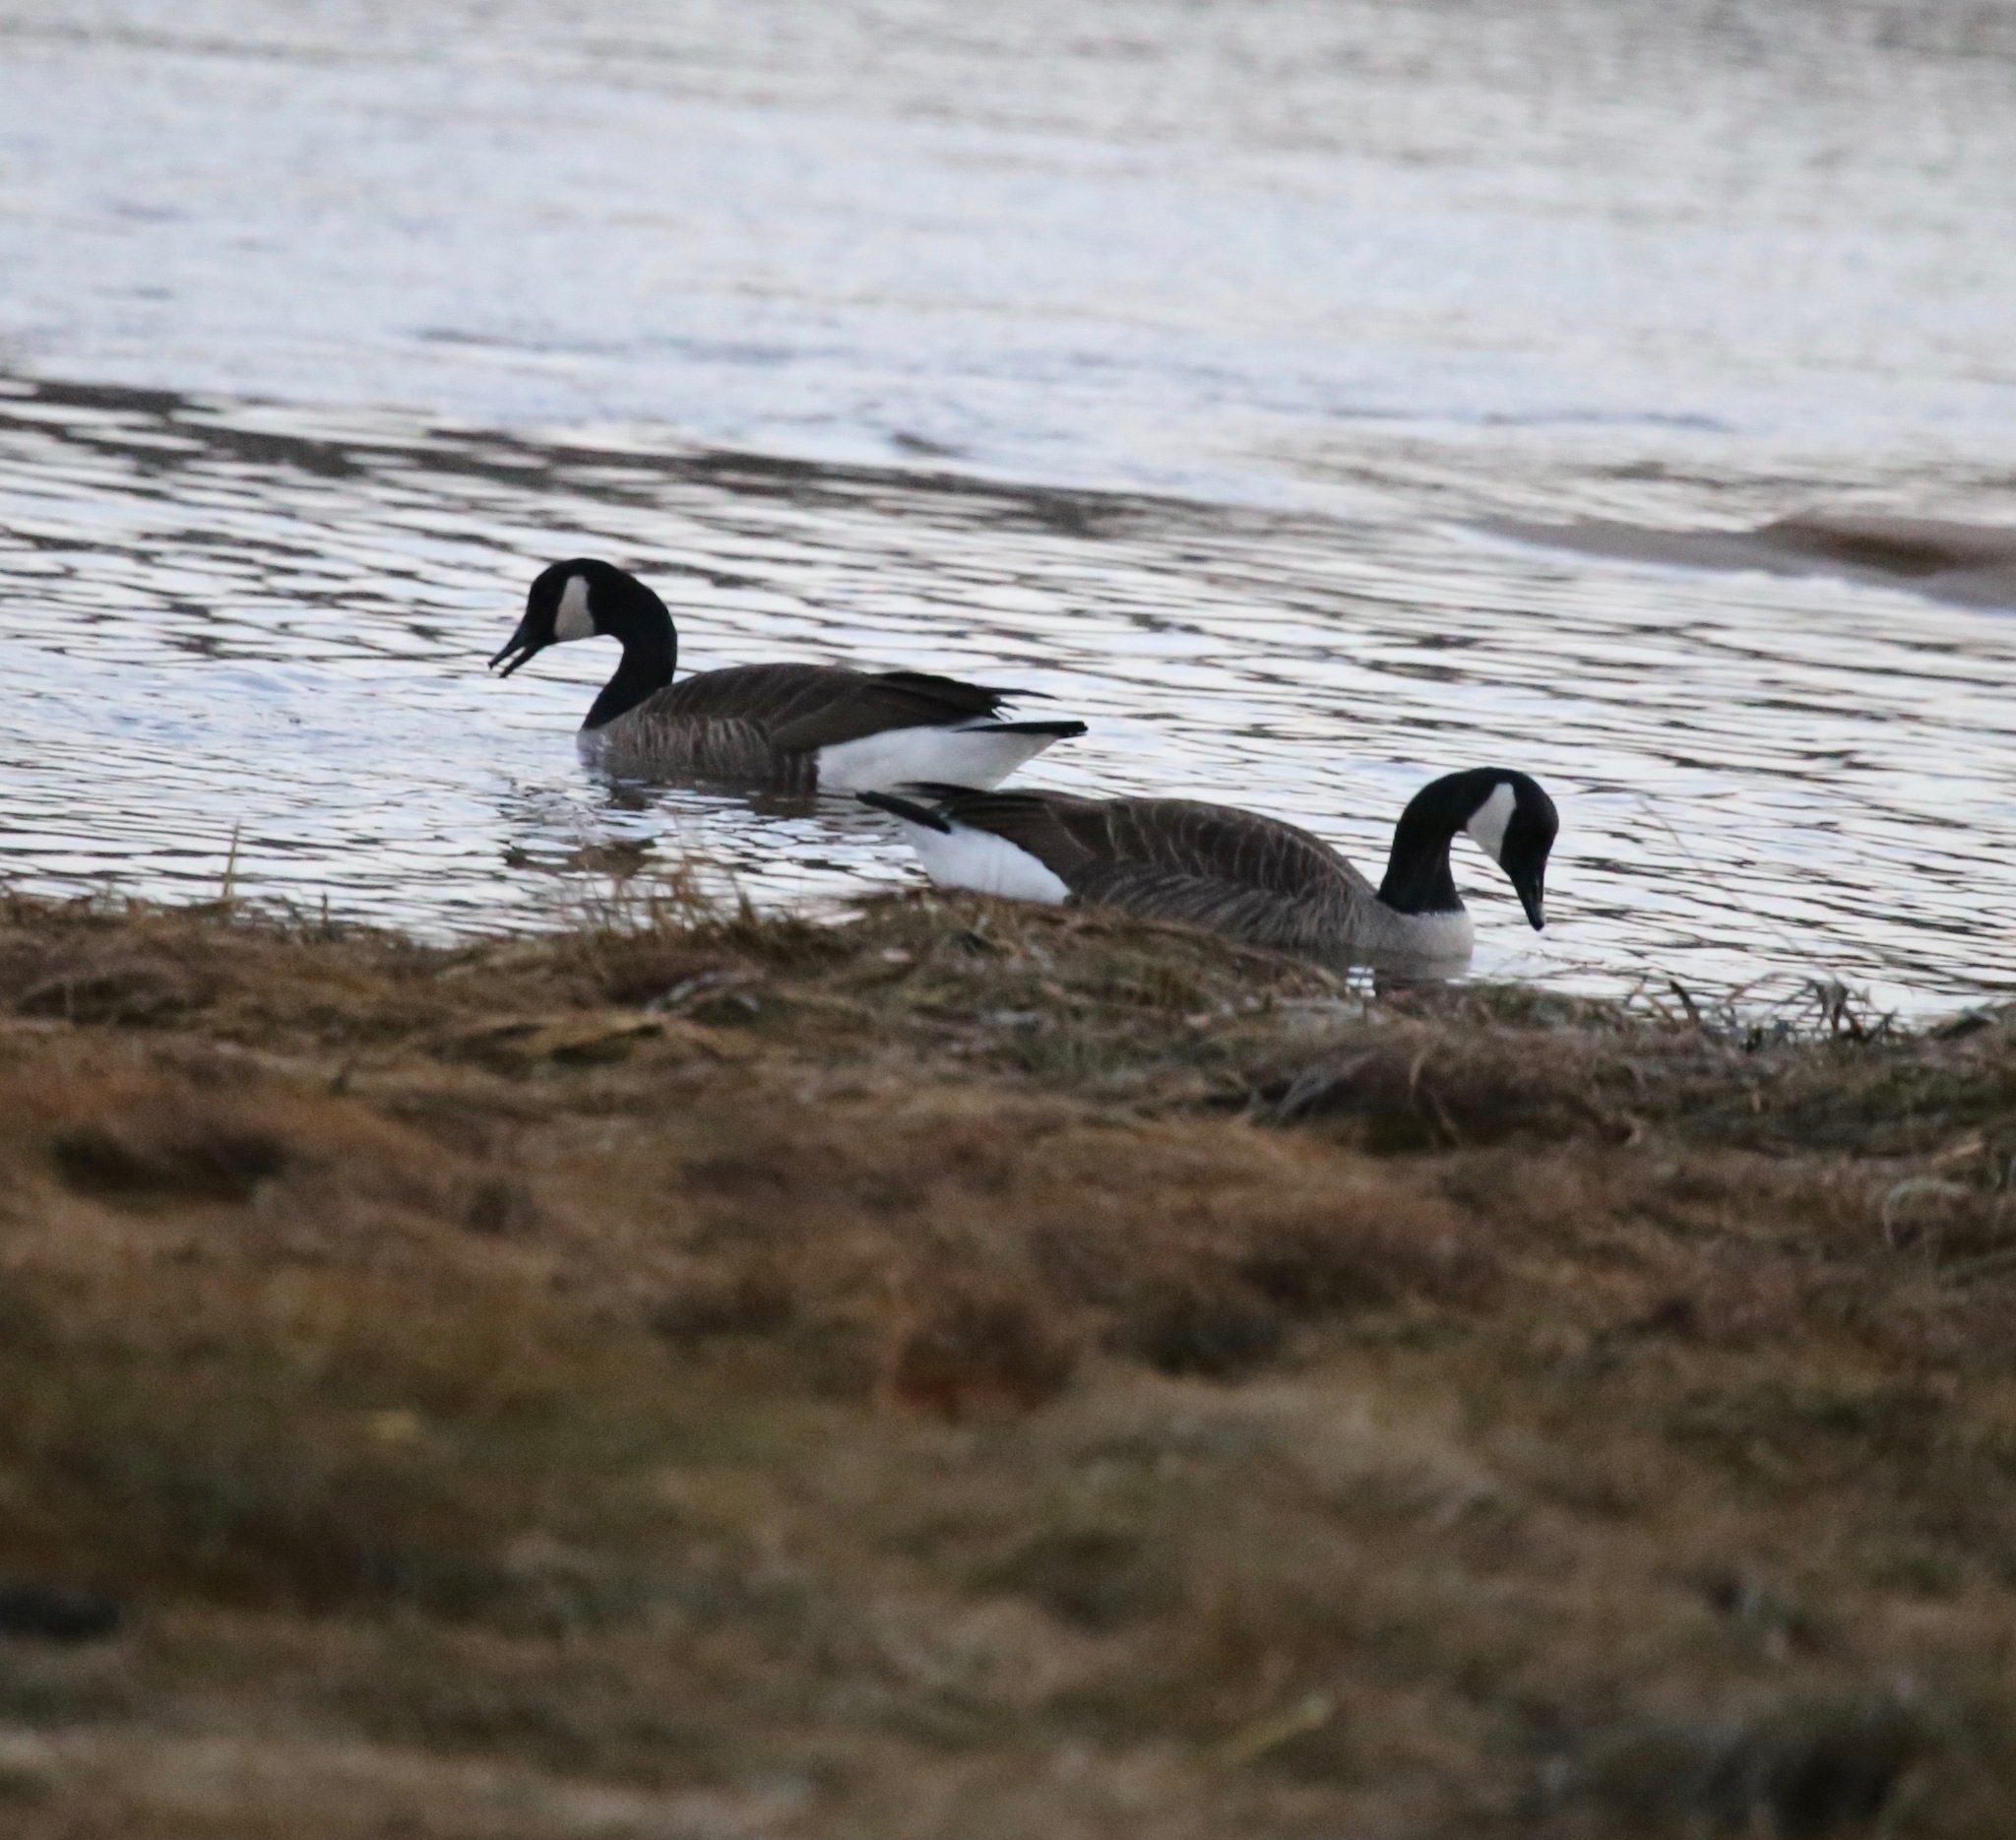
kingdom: Animalia
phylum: Chordata
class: Aves
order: Anseriformes
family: Anatidae
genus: Branta
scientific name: Branta canadensis
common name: Canada goose
